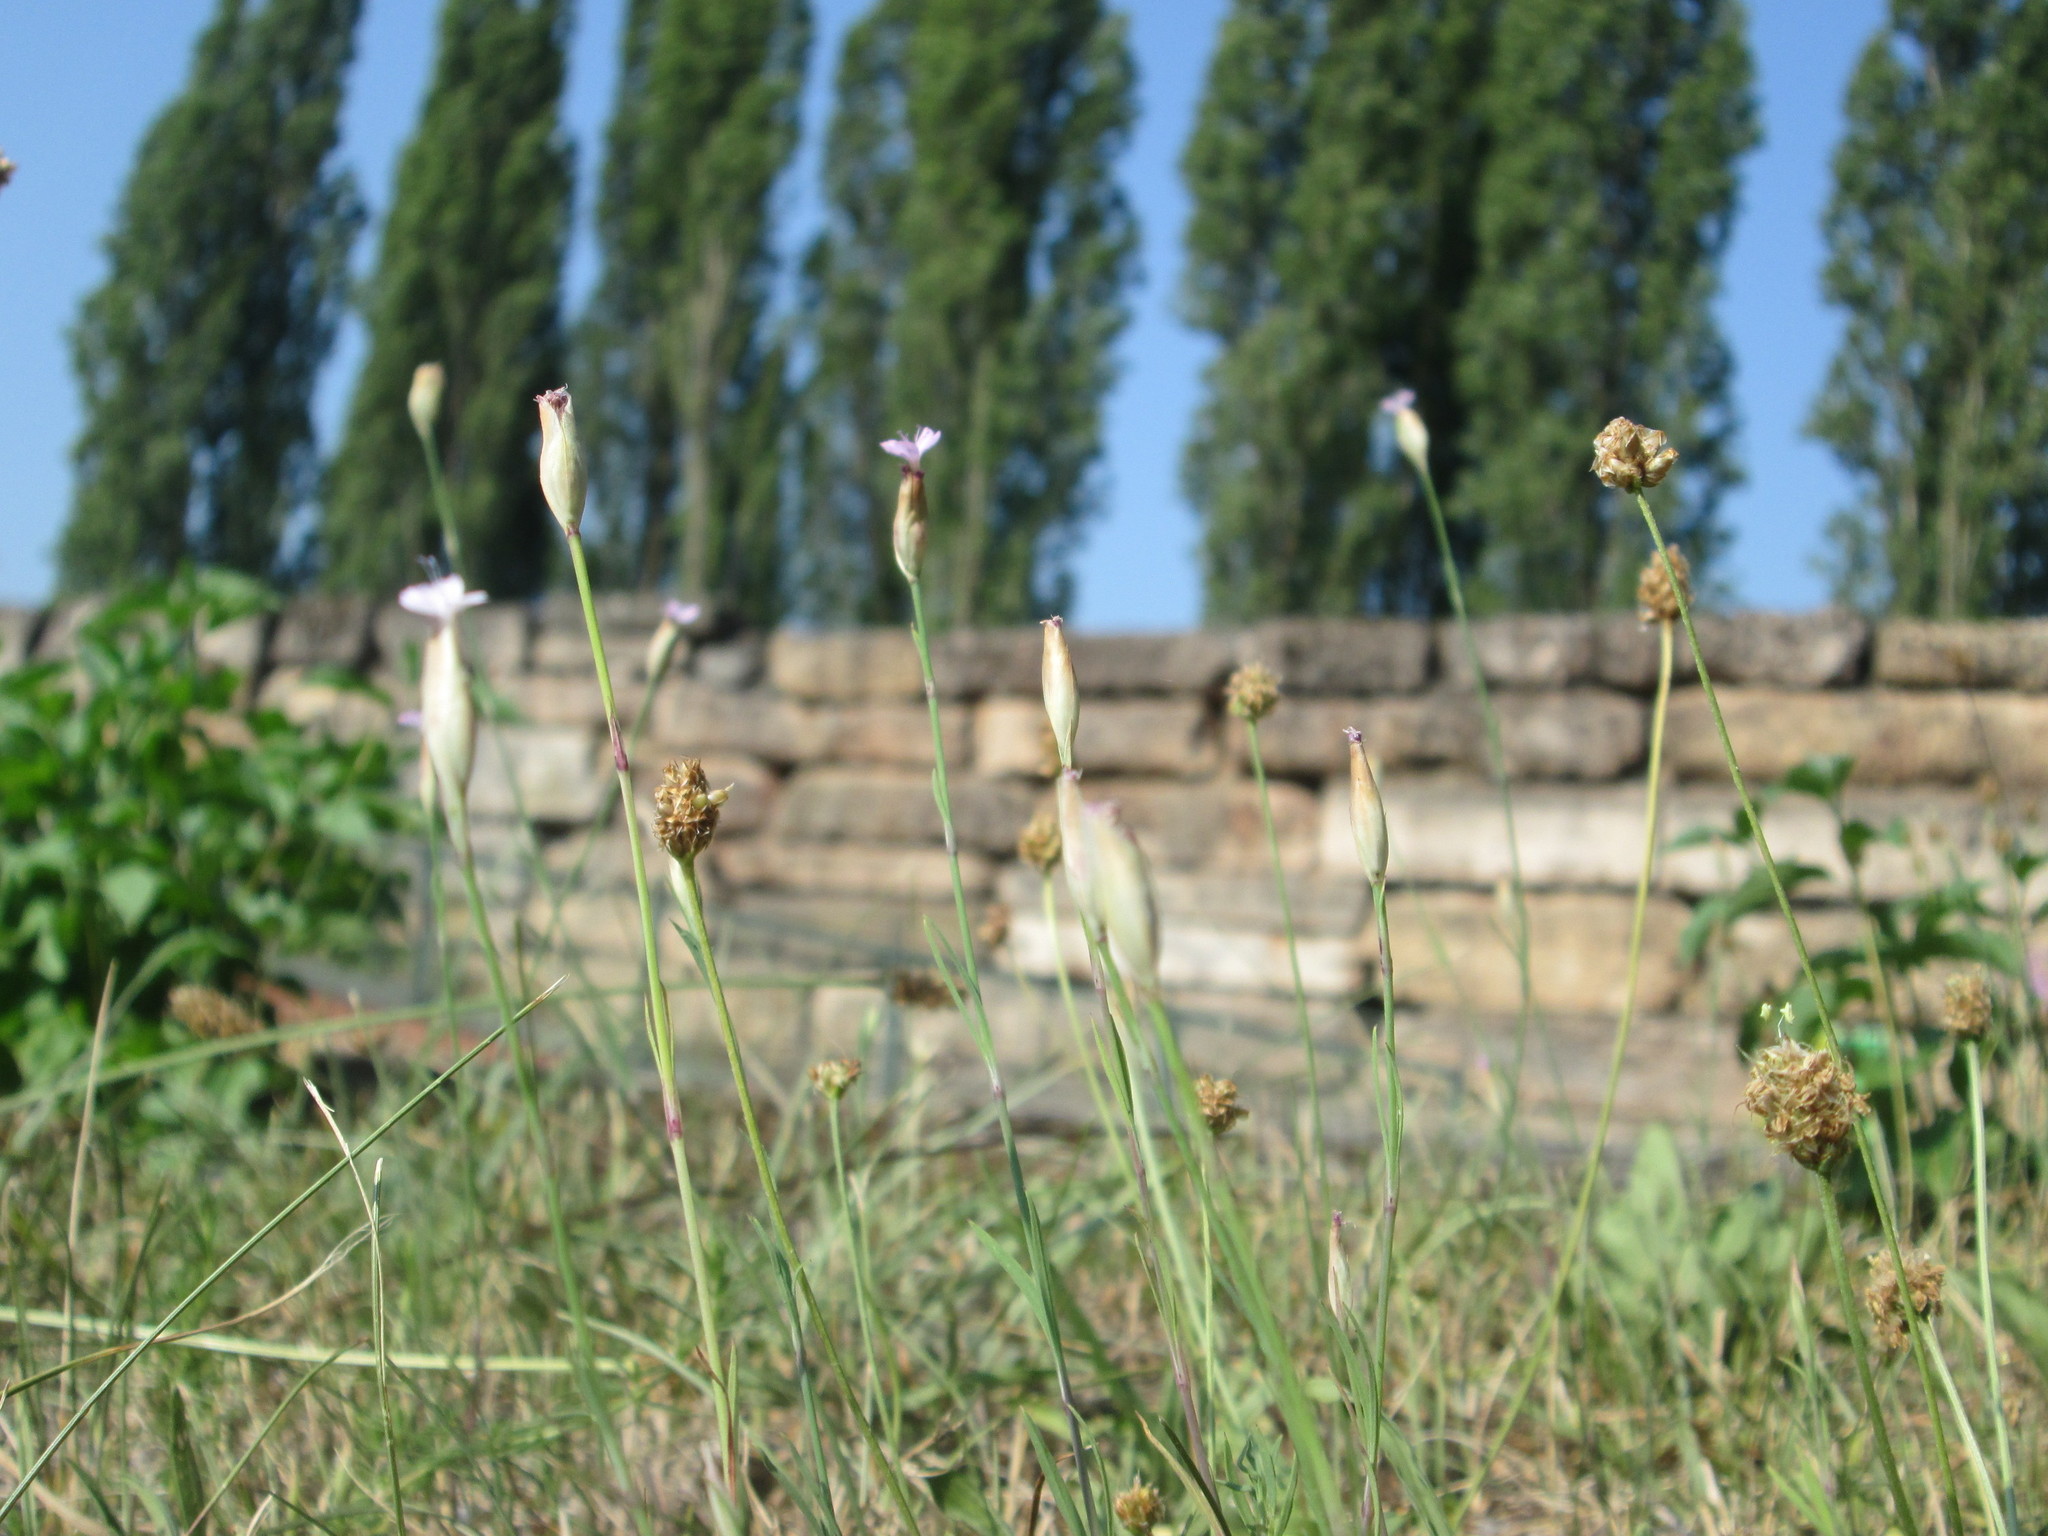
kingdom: Plantae
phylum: Tracheophyta
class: Magnoliopsida
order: Caryophyllales
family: Caryophyllaceae
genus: Petrorhagia
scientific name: Petrorhagia prolifera
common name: Proliferous pink
